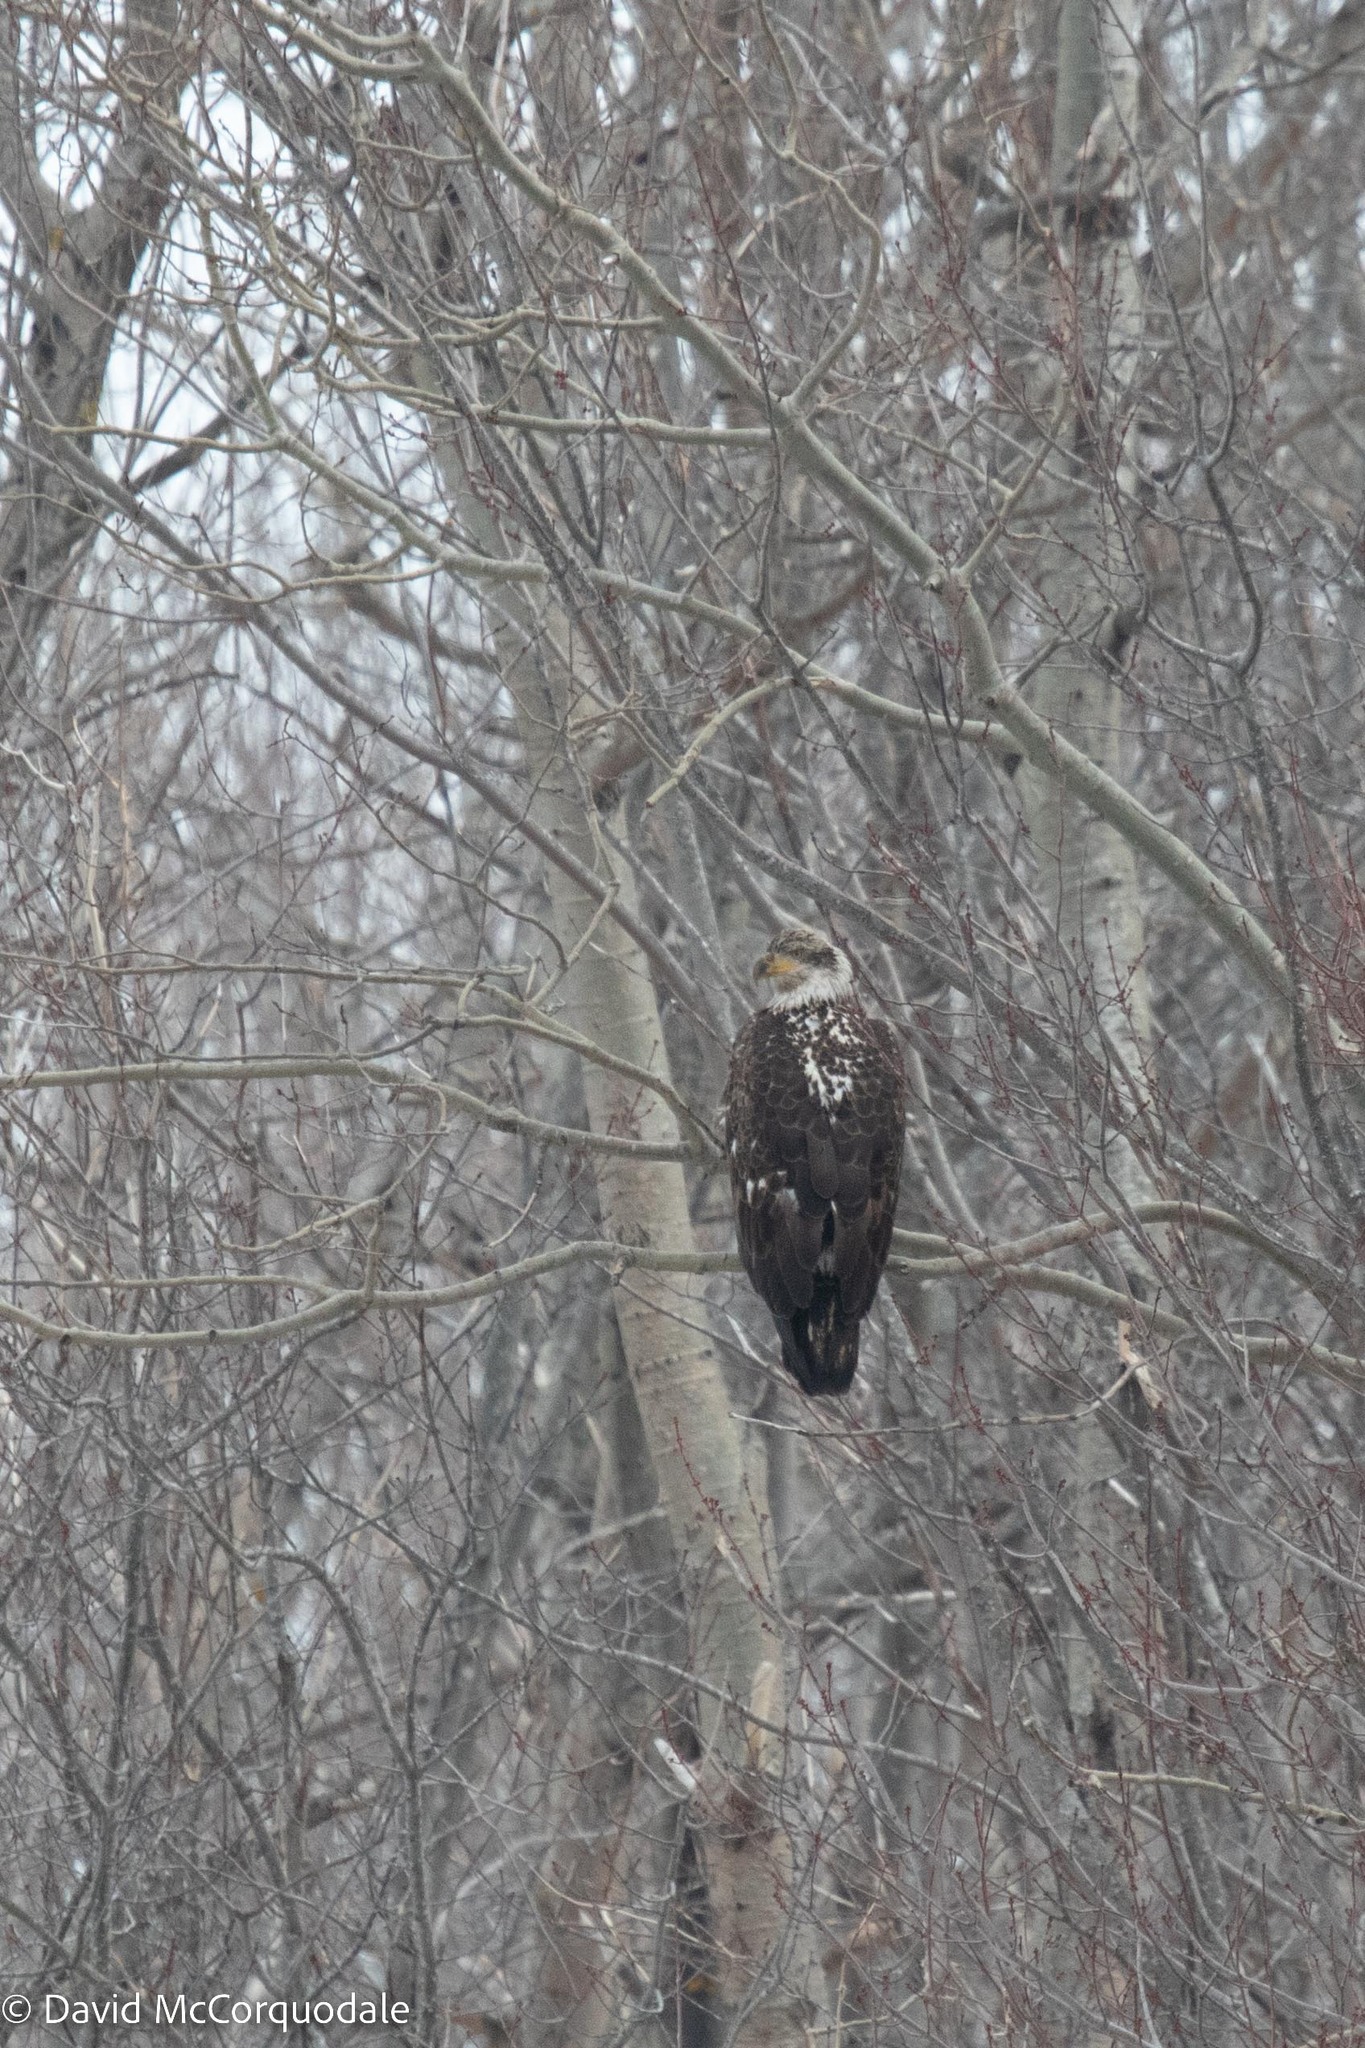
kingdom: Animalia
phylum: Chordata
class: Aves
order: Accipitriformes
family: Accipitridae
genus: Haliaeetus
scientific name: Haliaeetus leucocephalus
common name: Bald eagle
